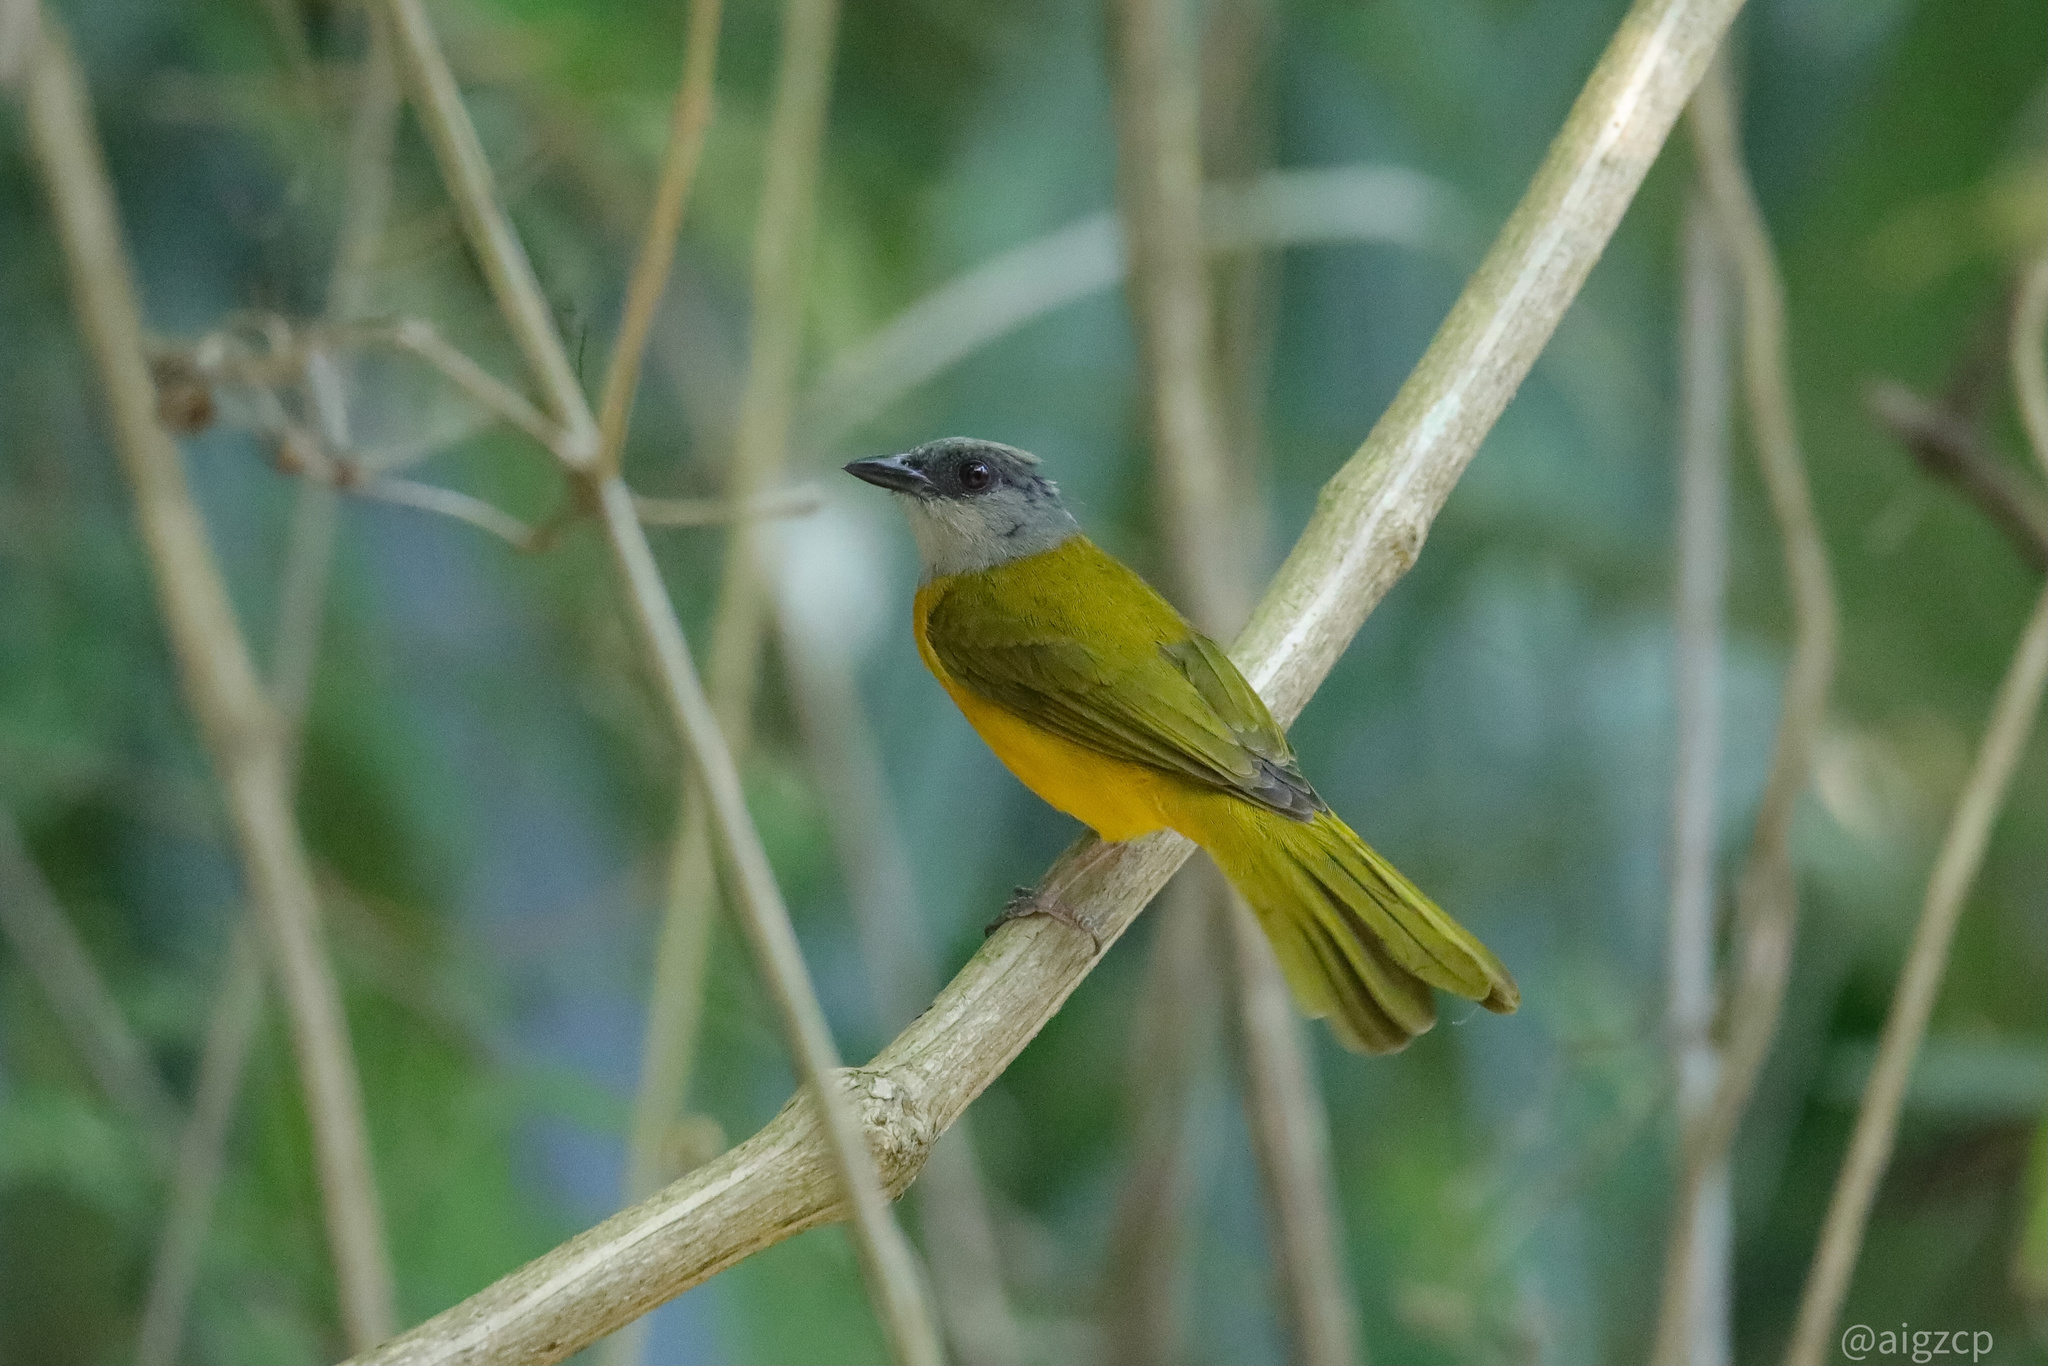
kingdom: Animalia
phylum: Chordata
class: Aves
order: Passeriformes
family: Thraupidae
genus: Eucometis
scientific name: Eucometis penicillata
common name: Grey-headed tanager
